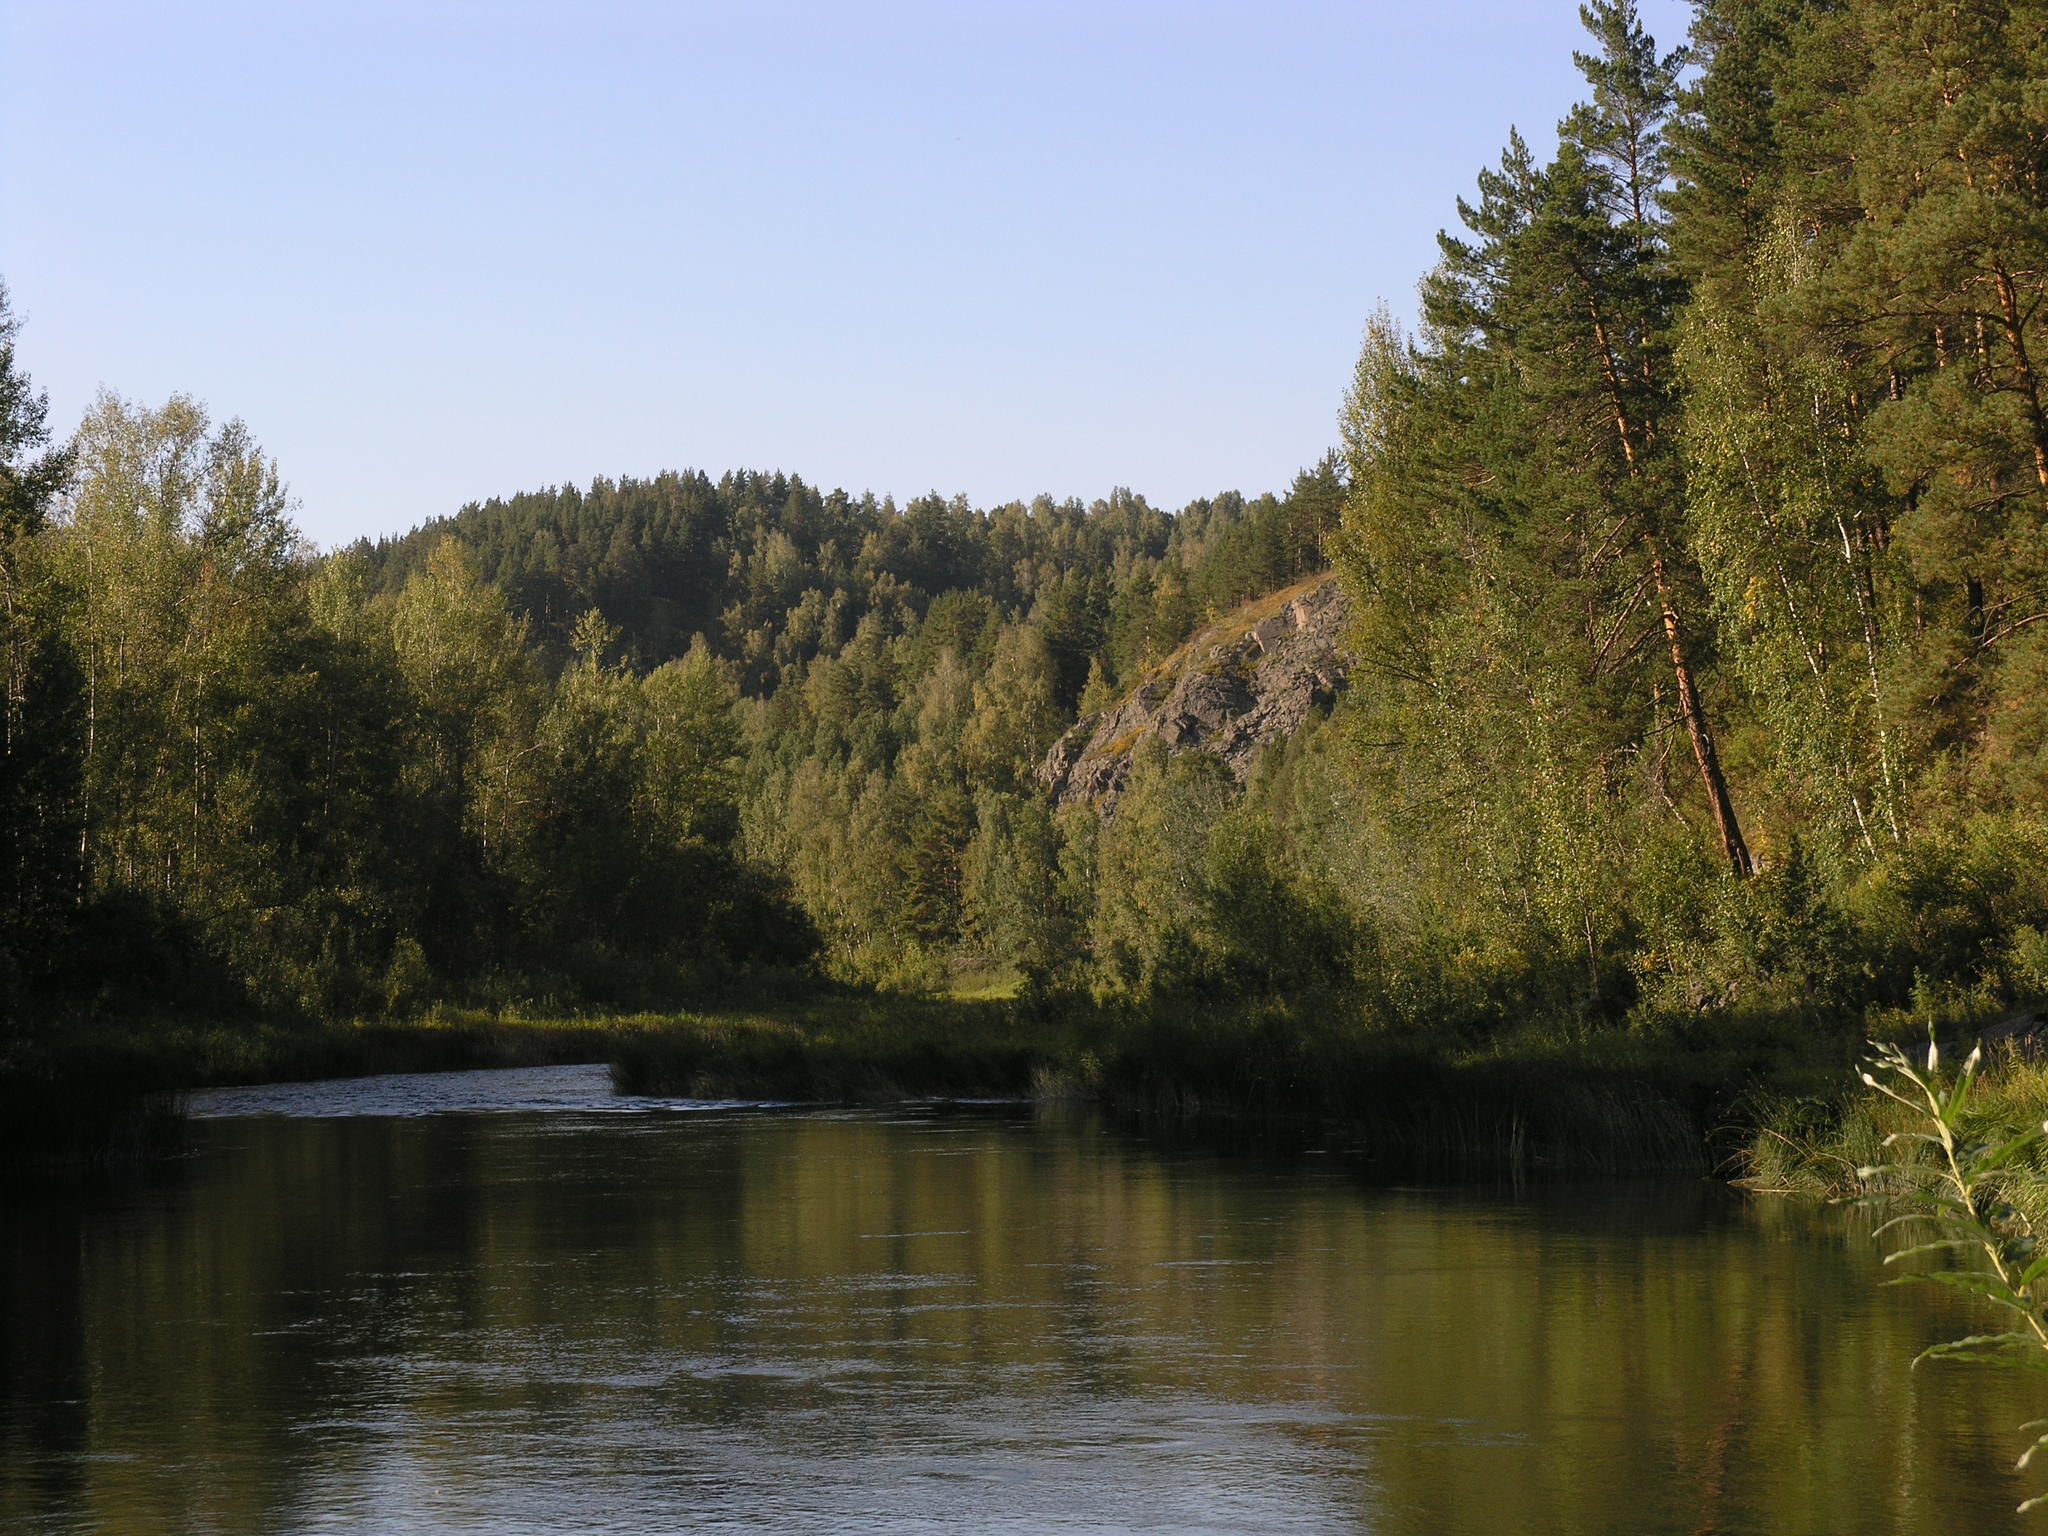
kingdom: Plantae
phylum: Tracheophyta
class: Pinopsida
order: Pinales
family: Pinaceae
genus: Pinus
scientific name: Pinus sylvestris
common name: Scots pine
